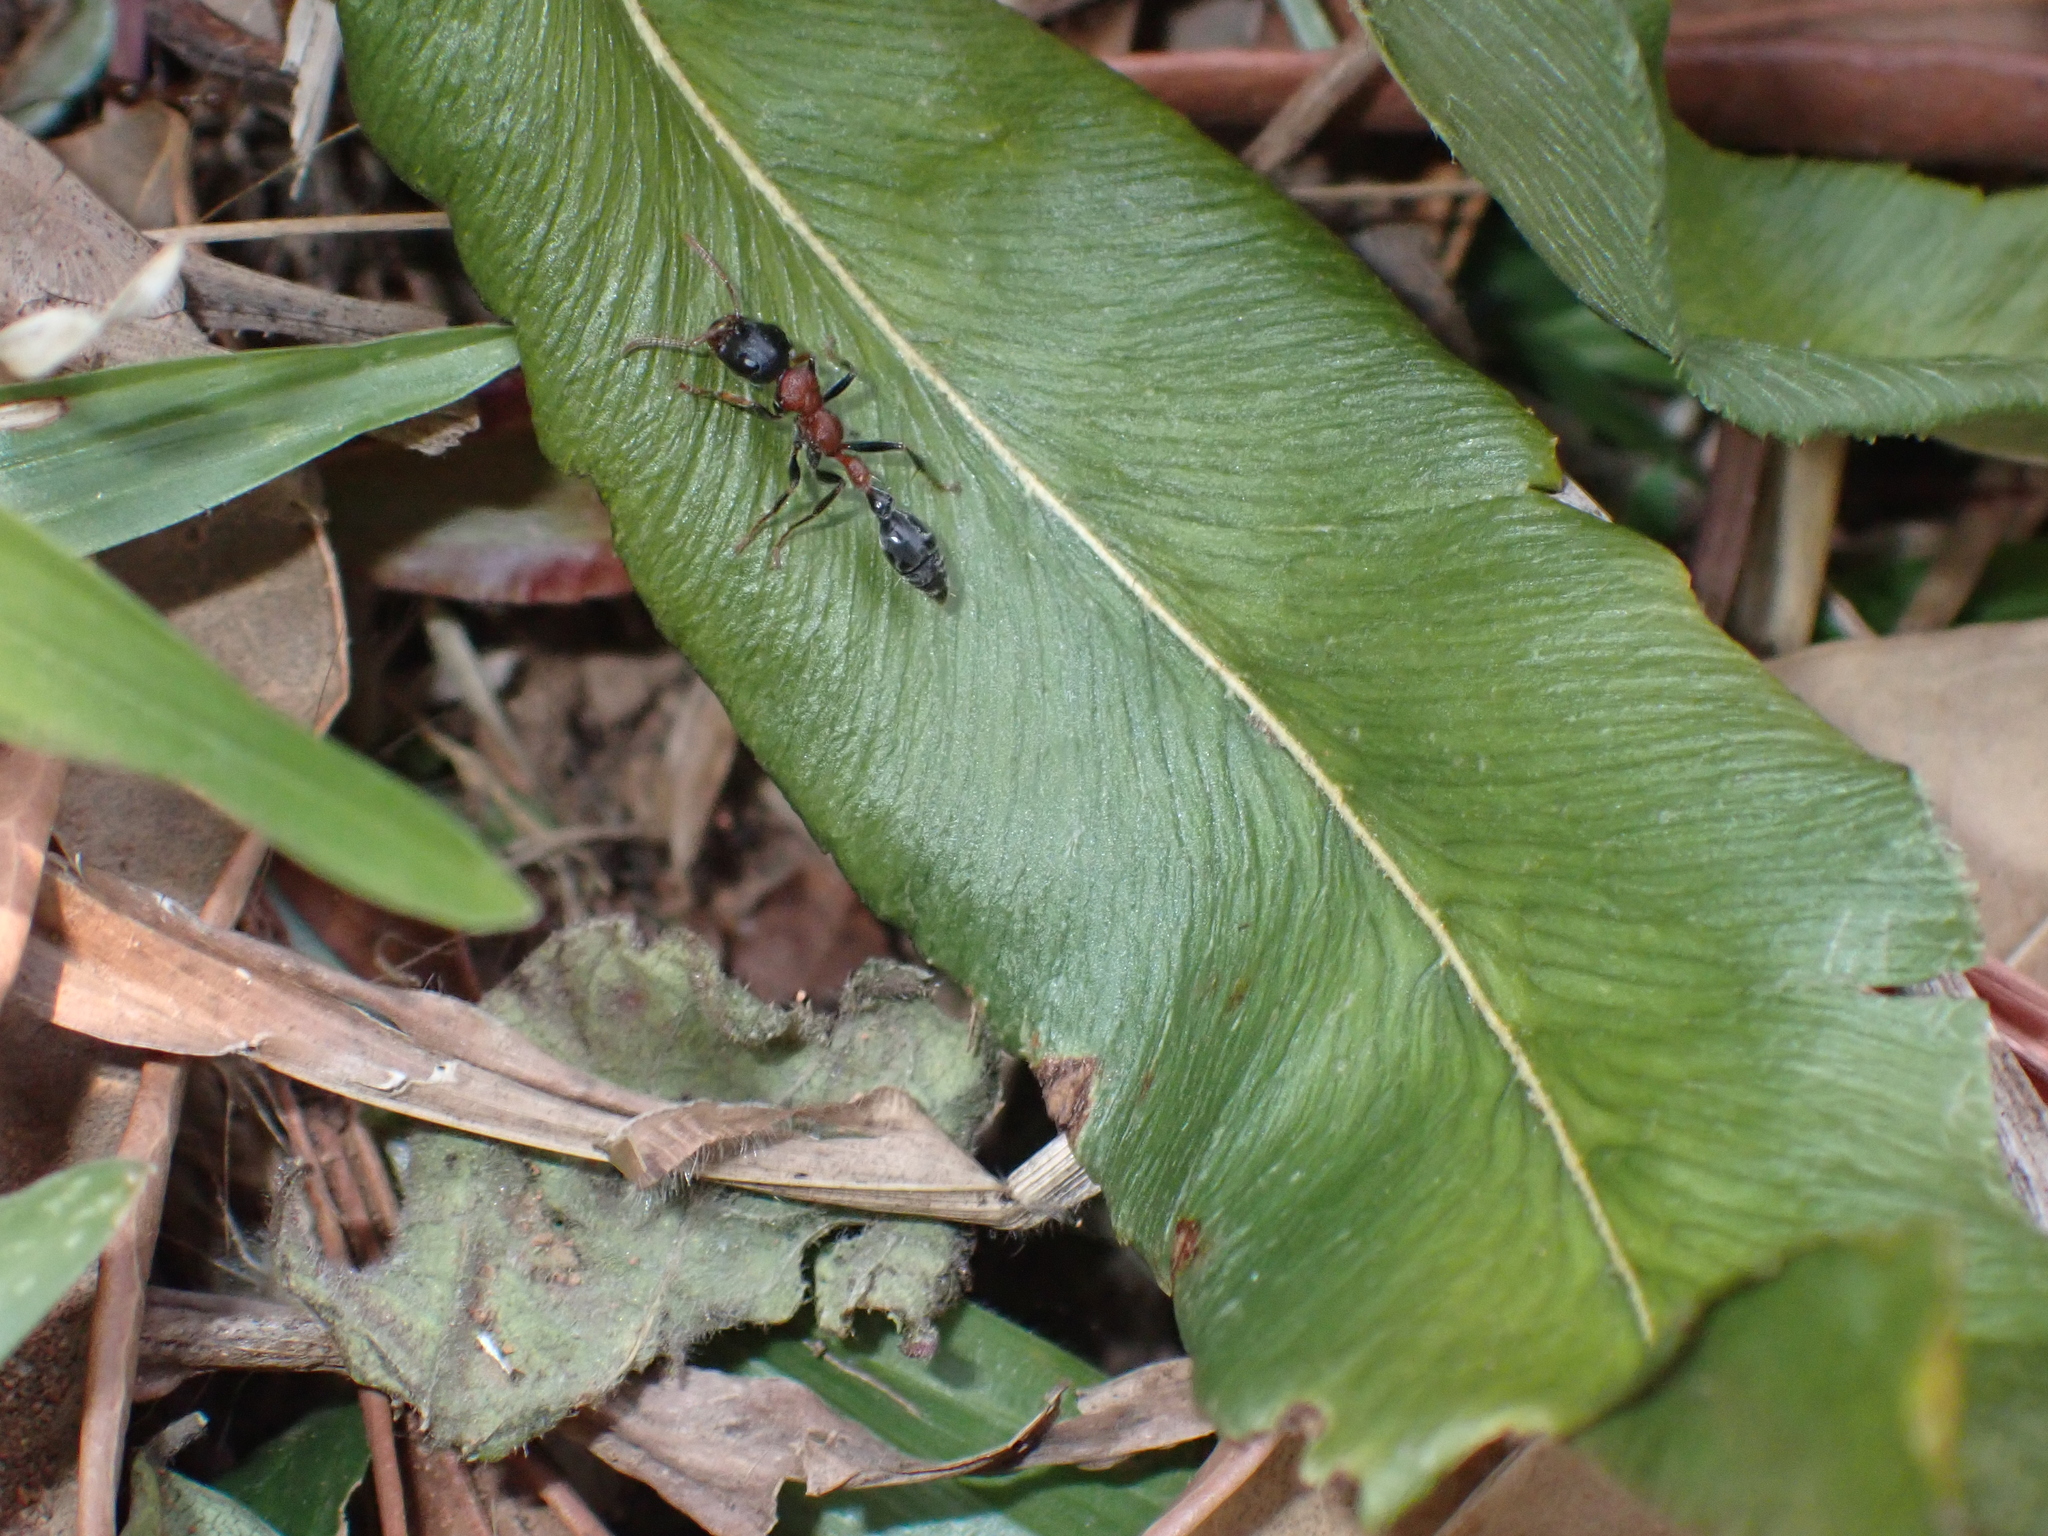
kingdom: Animalia
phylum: Arthropoda
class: Insecta
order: Hymenoptera
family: Formicidae
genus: Tetraponera
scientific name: Tetraponera rufonigra
